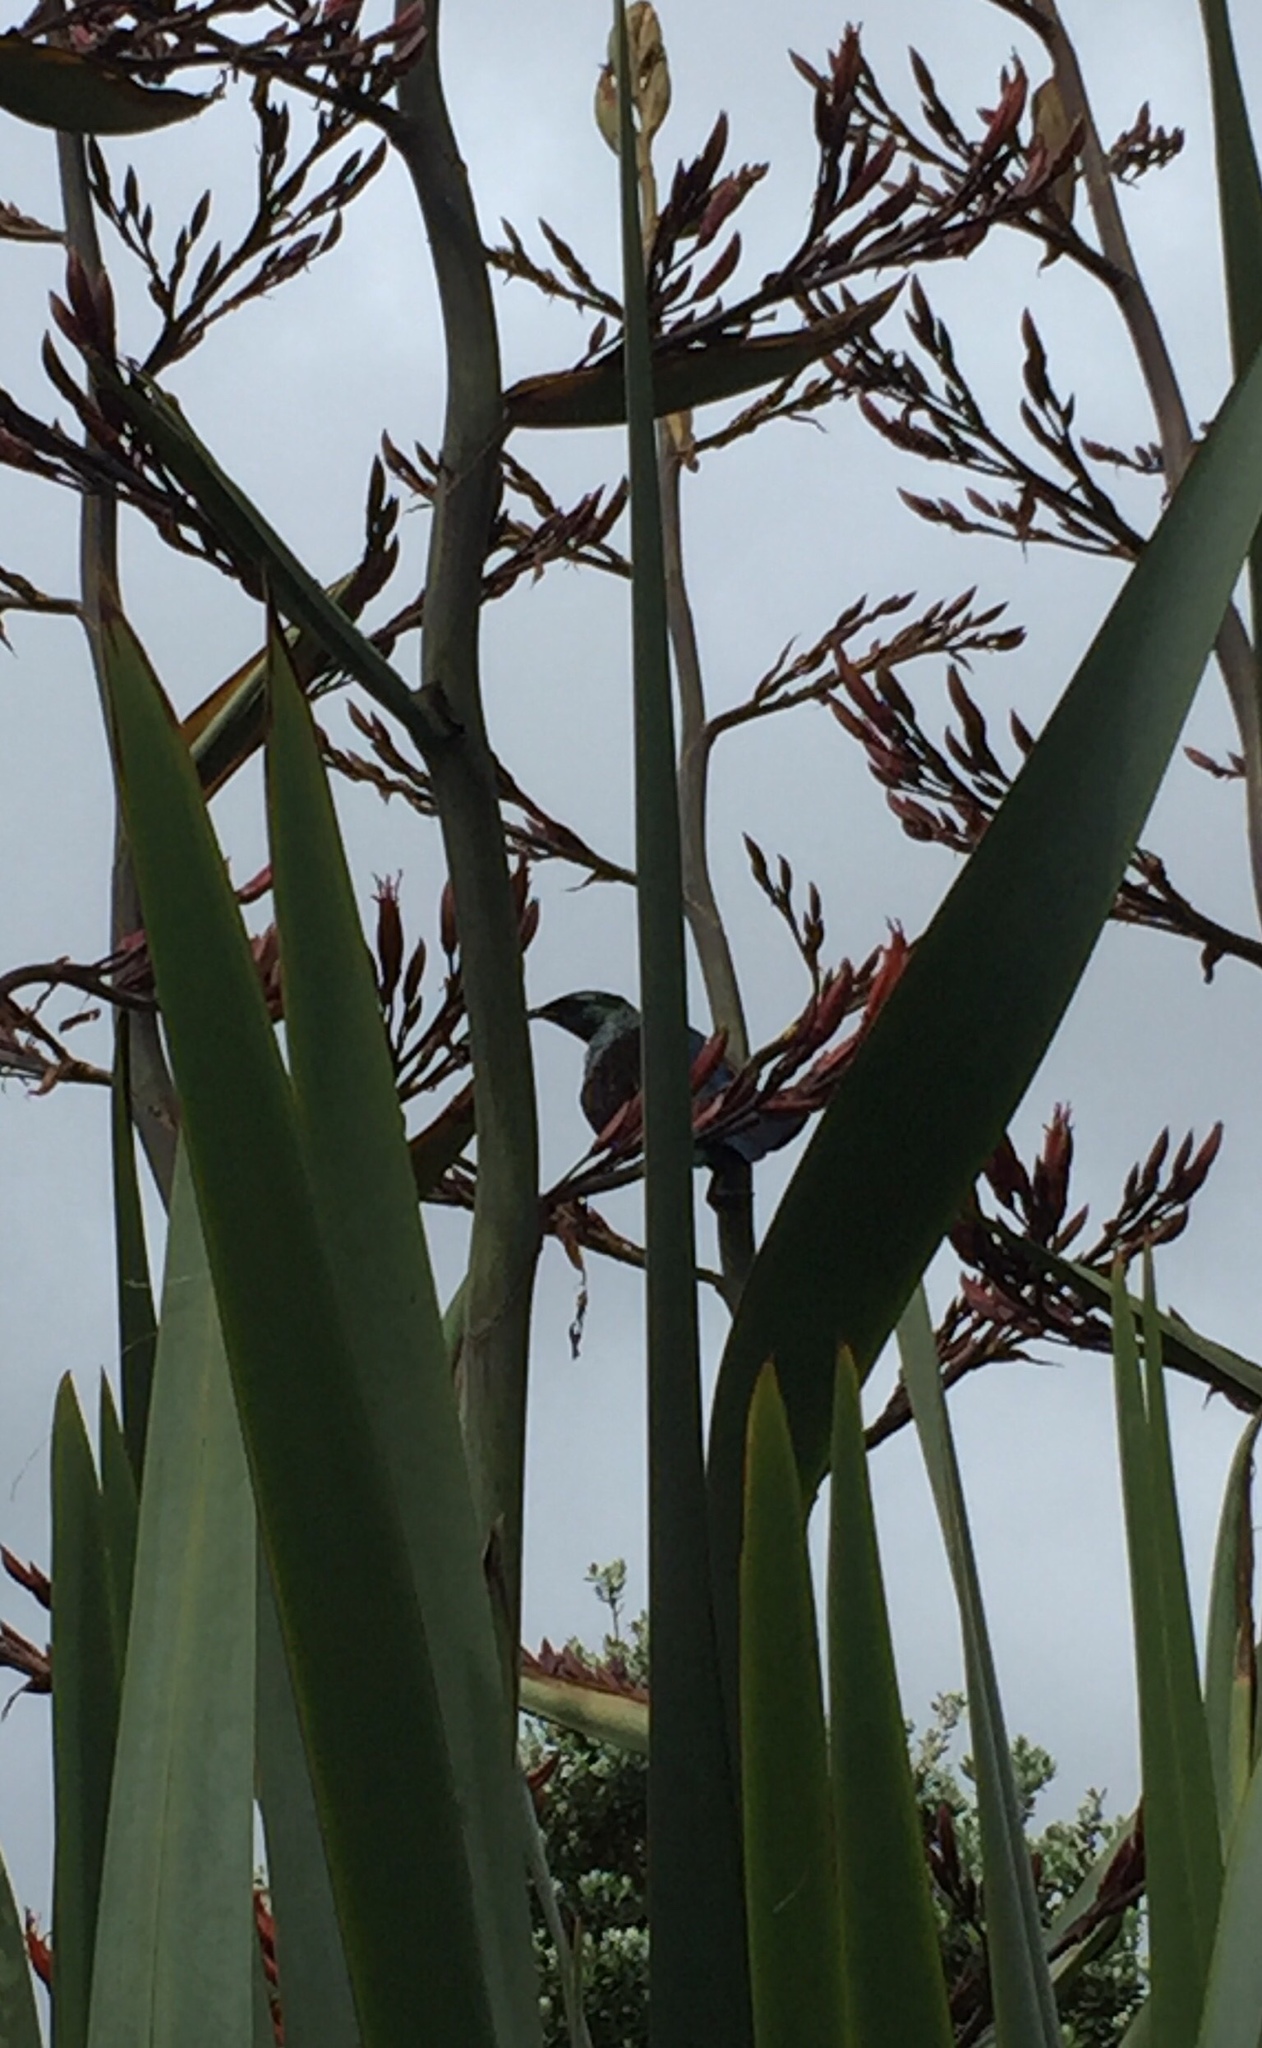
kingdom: Animalia
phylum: Chordata
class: Aves
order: Passeriformes
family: Meliphagidae
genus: Prosthemadera
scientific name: Prosthemadera novaeseelandiae
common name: Tui
